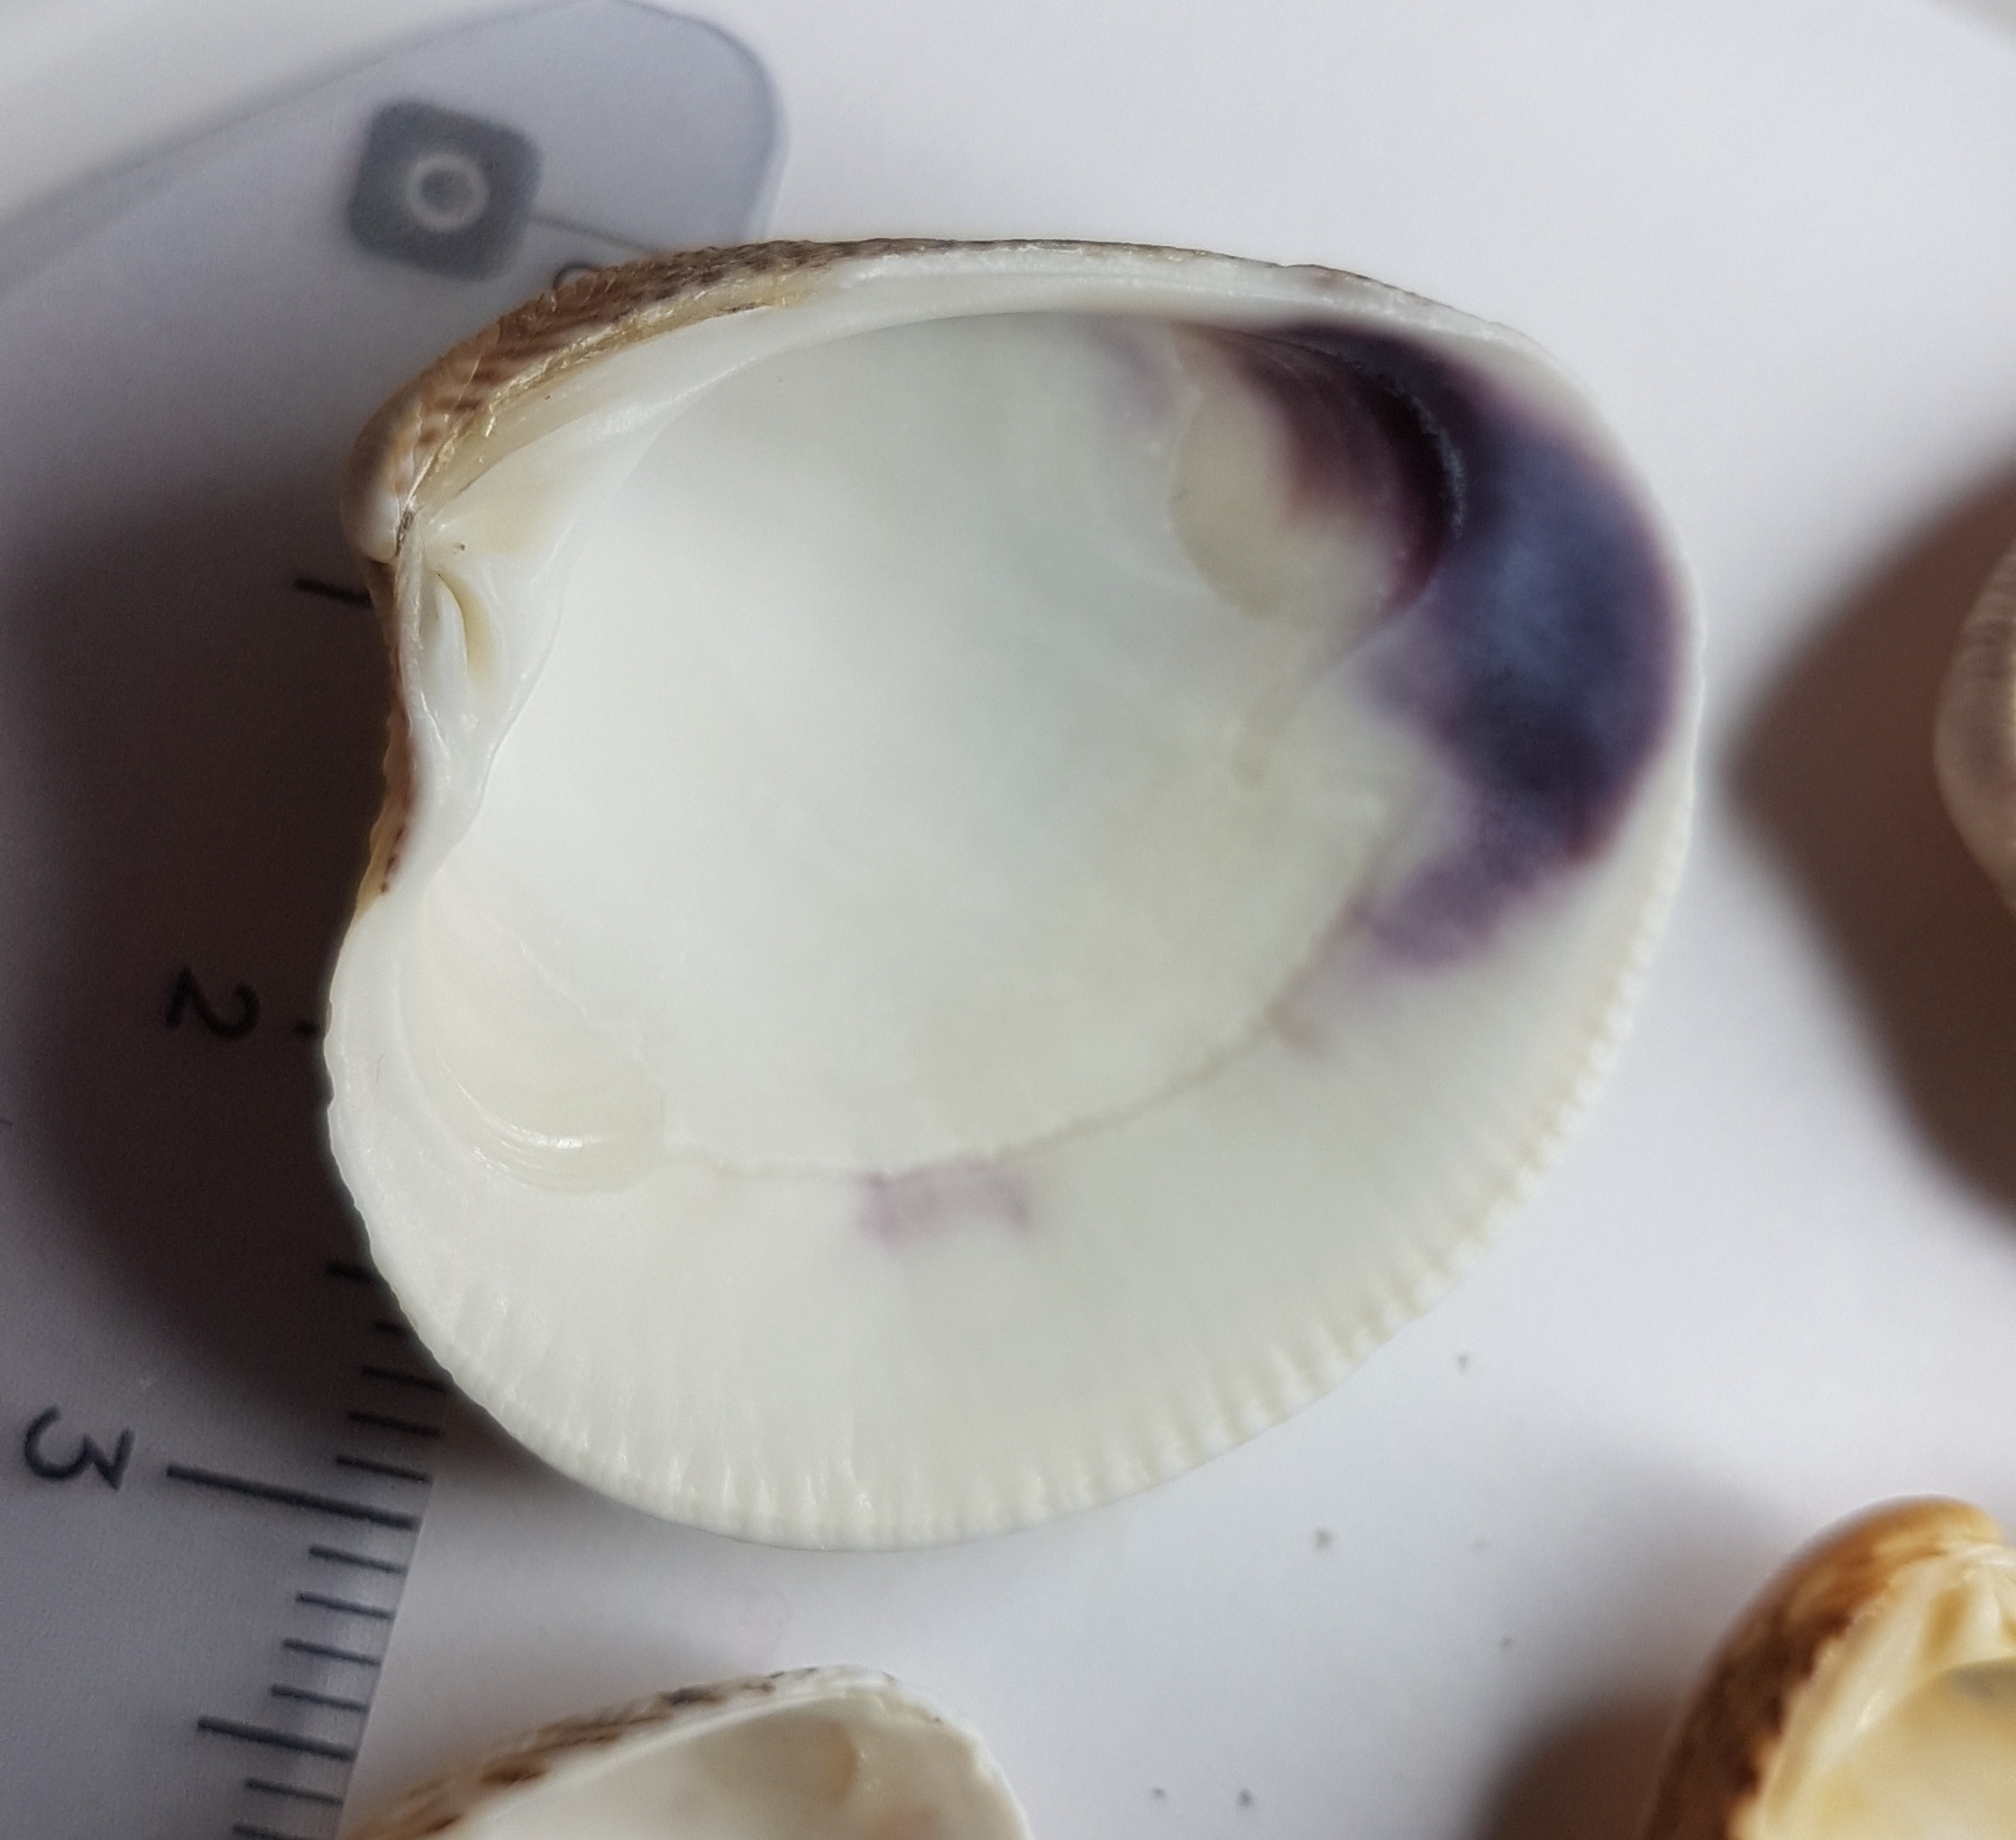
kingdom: Animalia
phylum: Mollusca
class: Bivalvia
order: Venerida
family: Veneridae
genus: Chamelea
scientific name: Chamelea gallina
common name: Chicken venus
